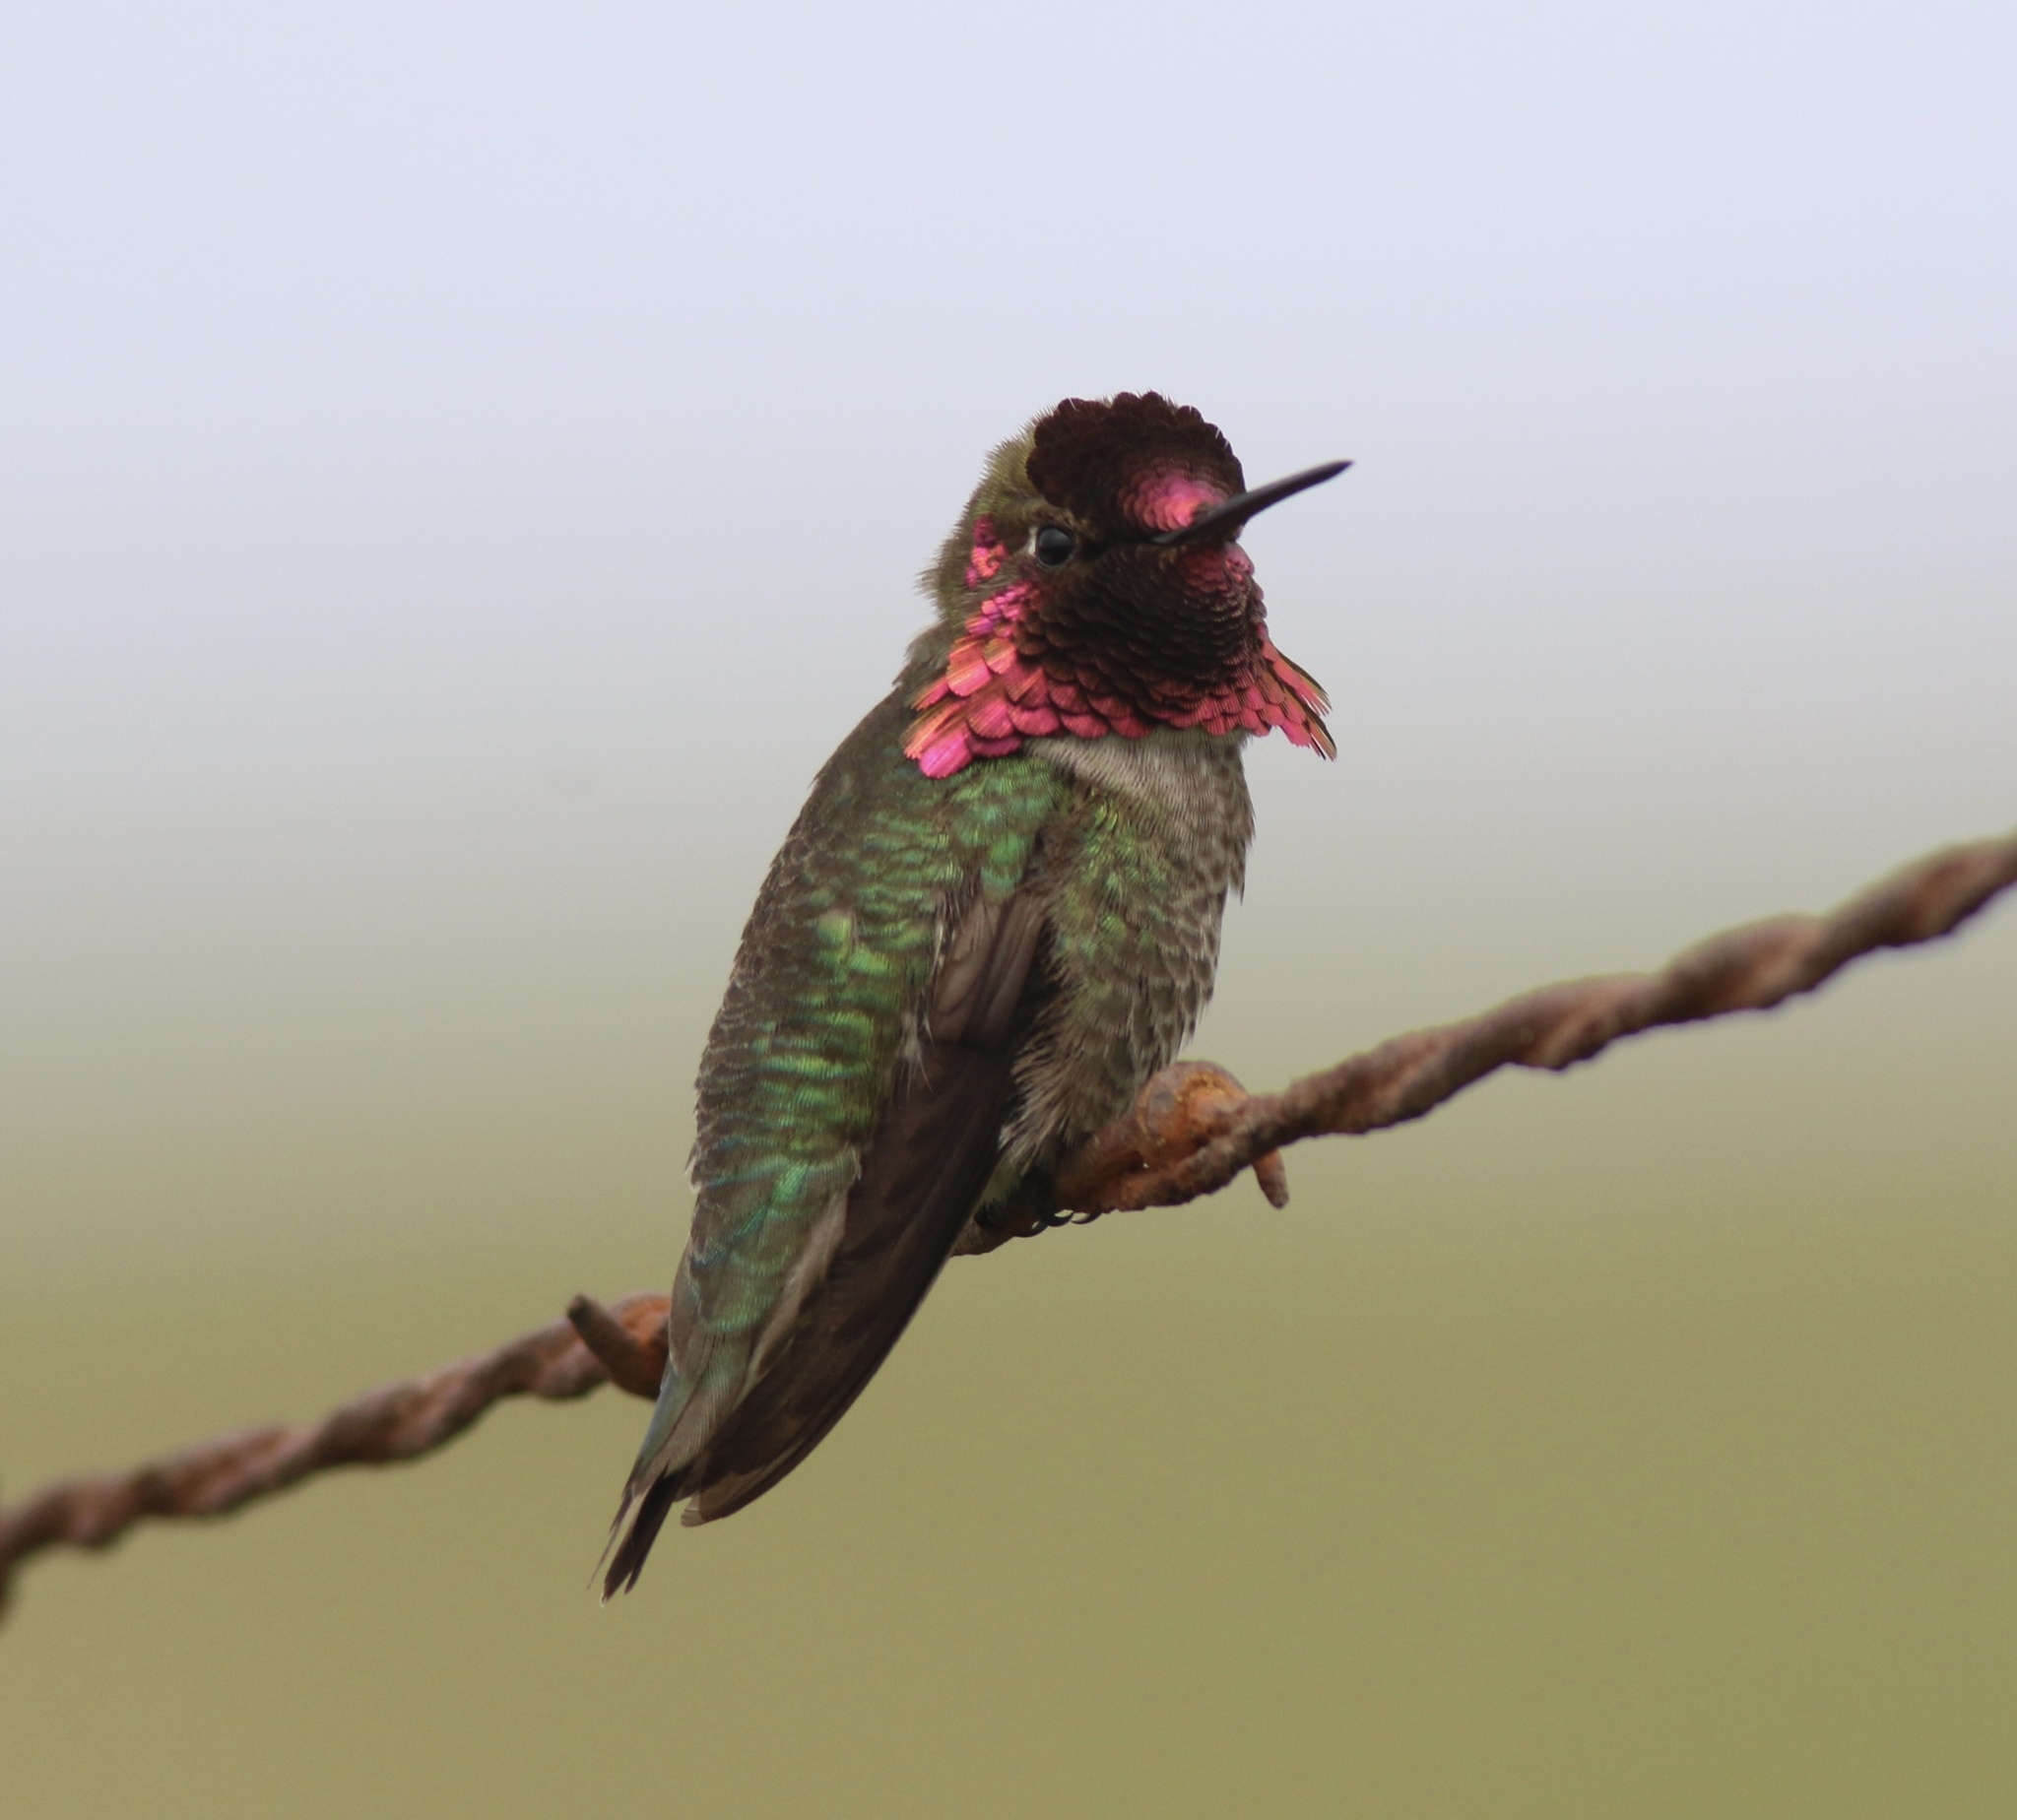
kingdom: Animalia
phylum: Chordata
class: Aves
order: Apodiformes
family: Trochilidae
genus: Calypte
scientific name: Calypte anna
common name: Anna's hummingbird
